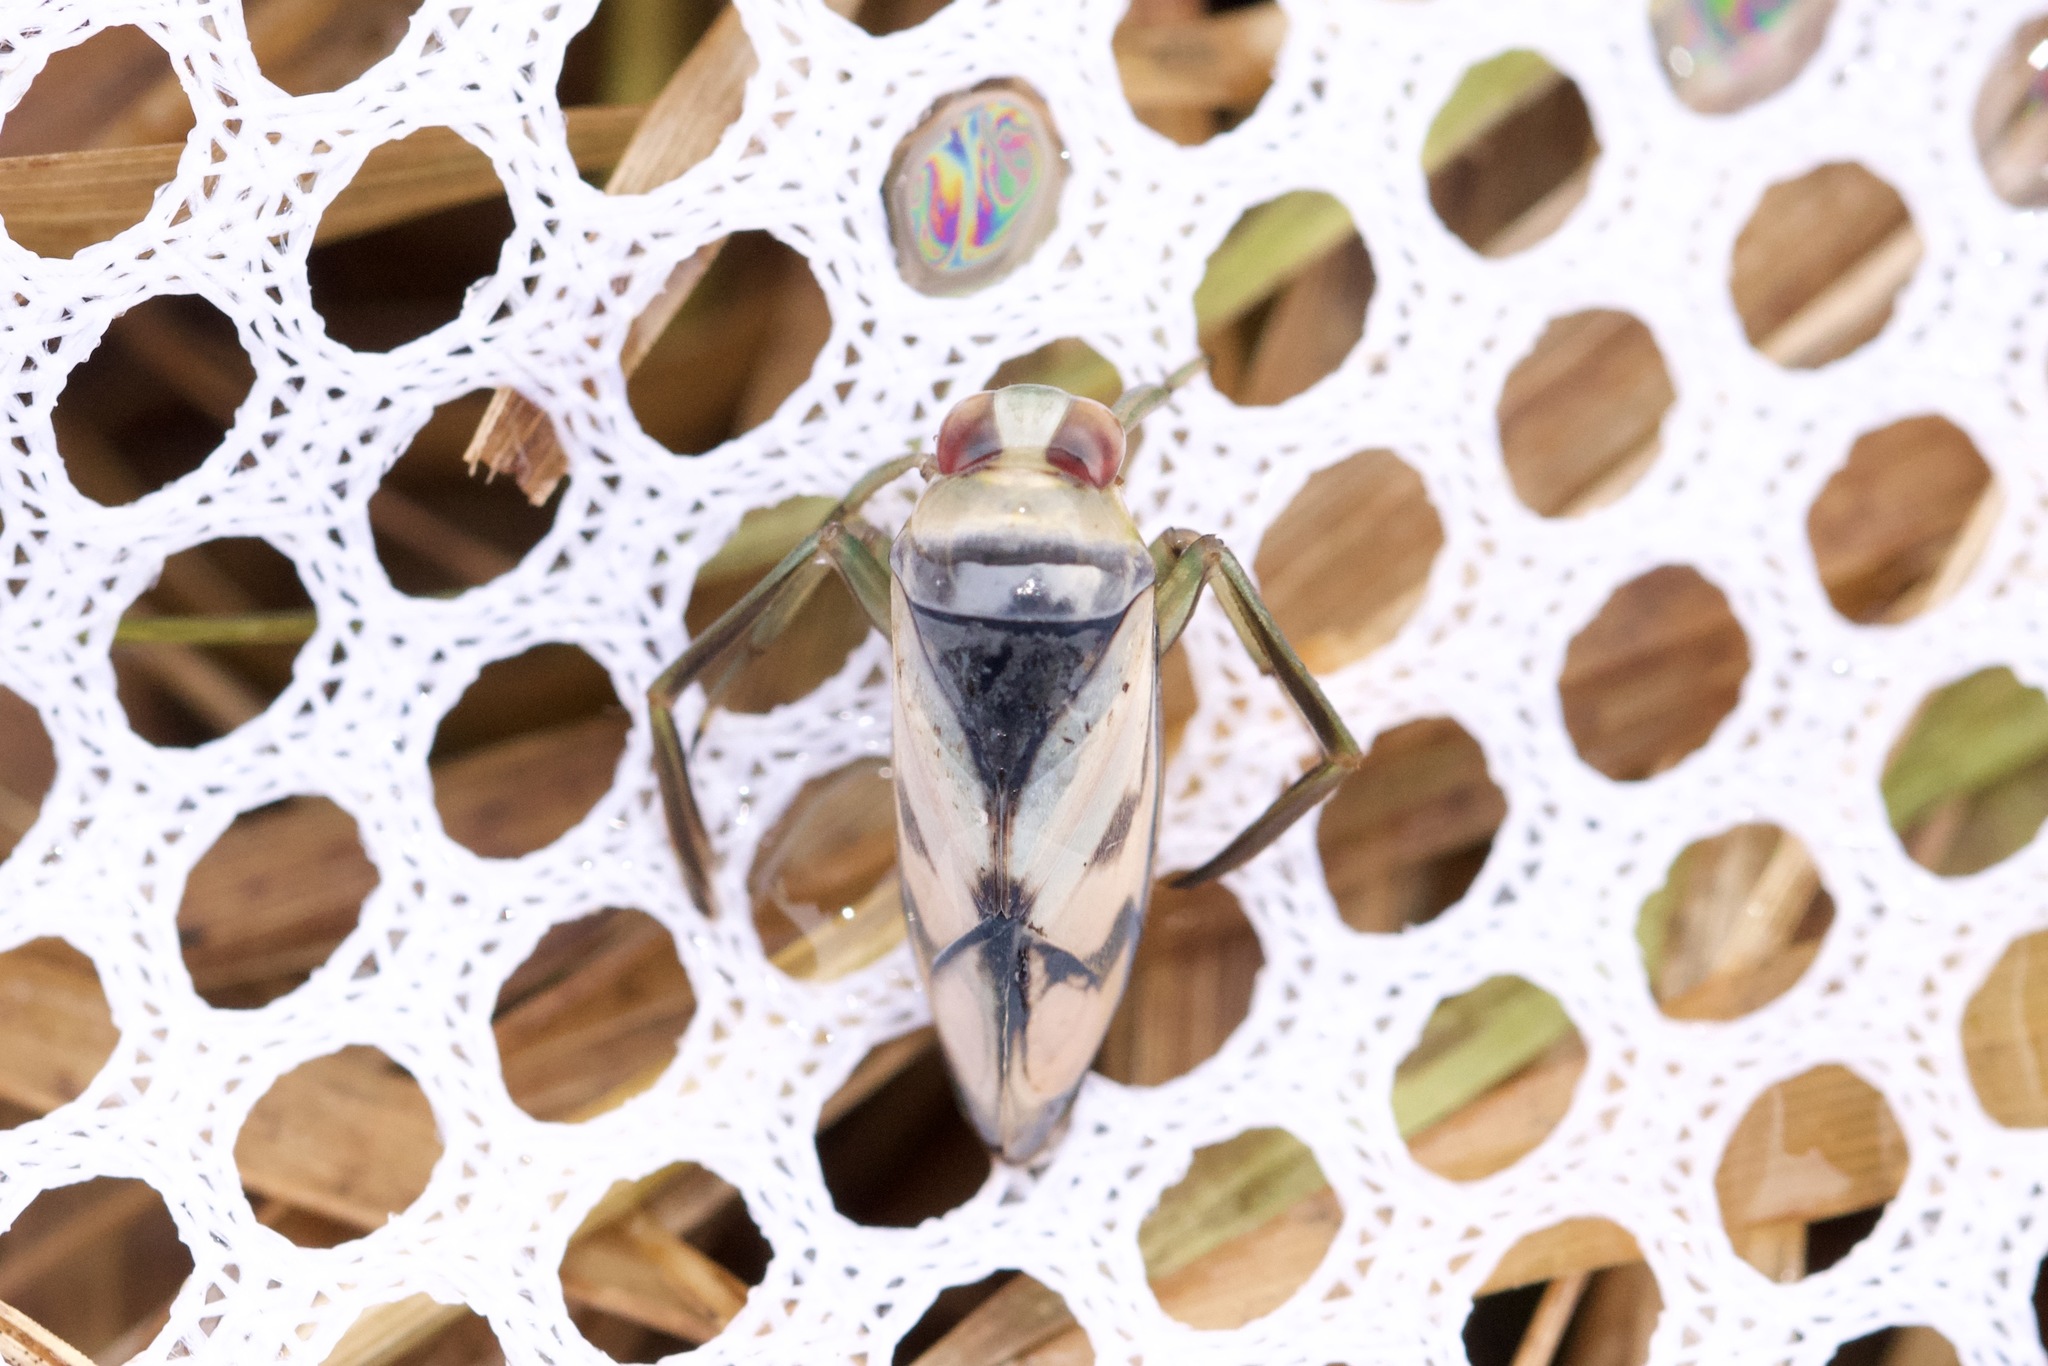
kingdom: Animalia
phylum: Arthropoda
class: Insecta
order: Hemiptera
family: Notonectidae
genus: Notonecta
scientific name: Notonecta undulata
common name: Grousewinged backswimmer
